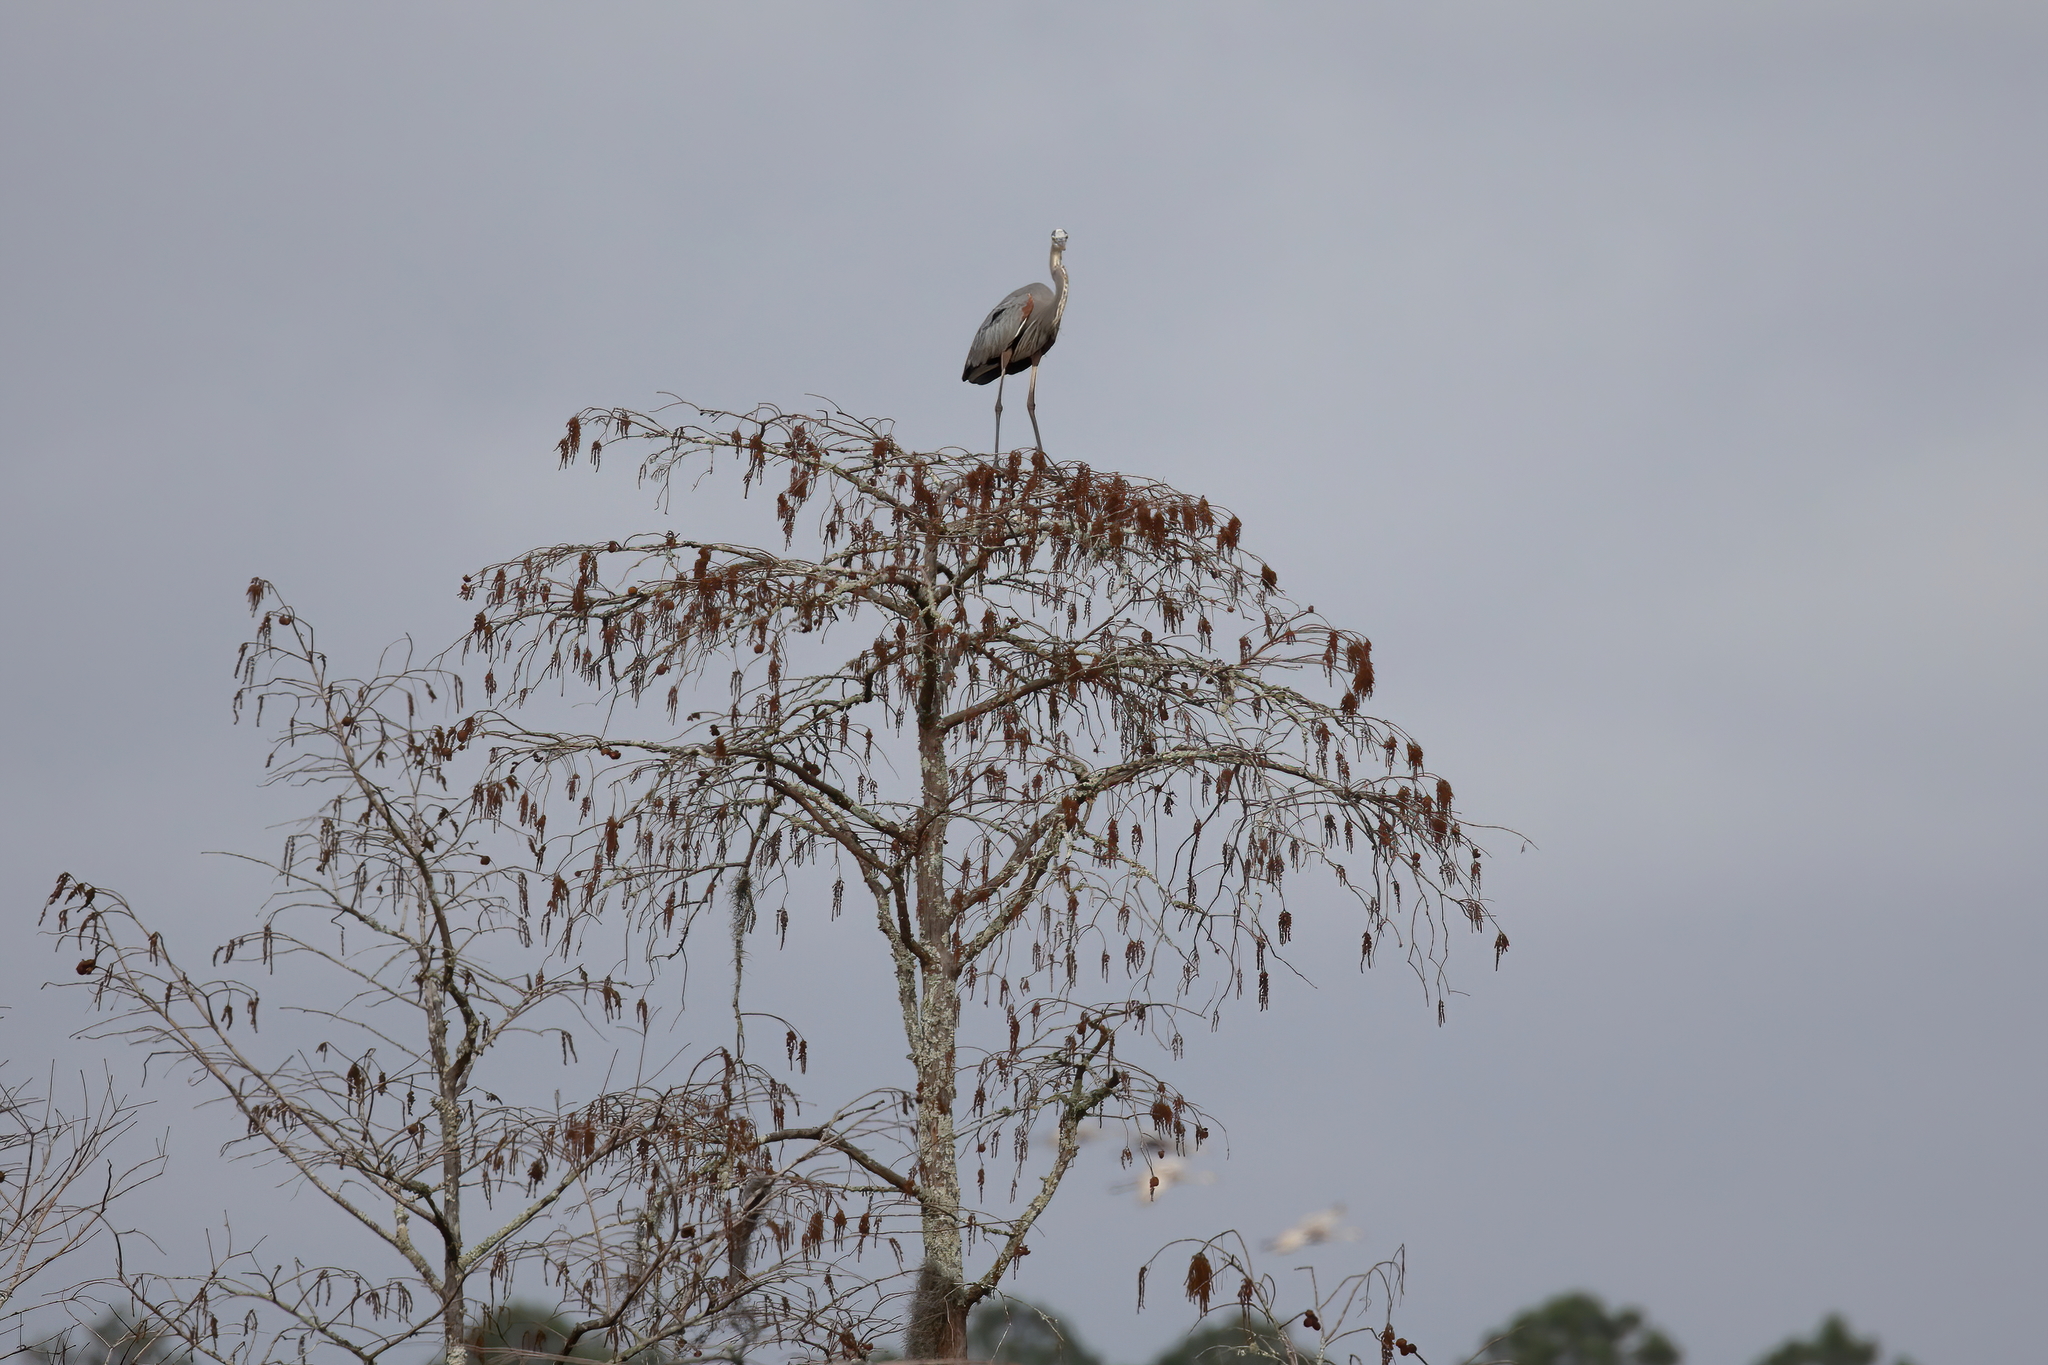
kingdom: Animalia
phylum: Chordata
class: Aves
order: Pelecaniformes
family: Ardeidae
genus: Ardea
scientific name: Ardea herodias
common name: Great blue heron
